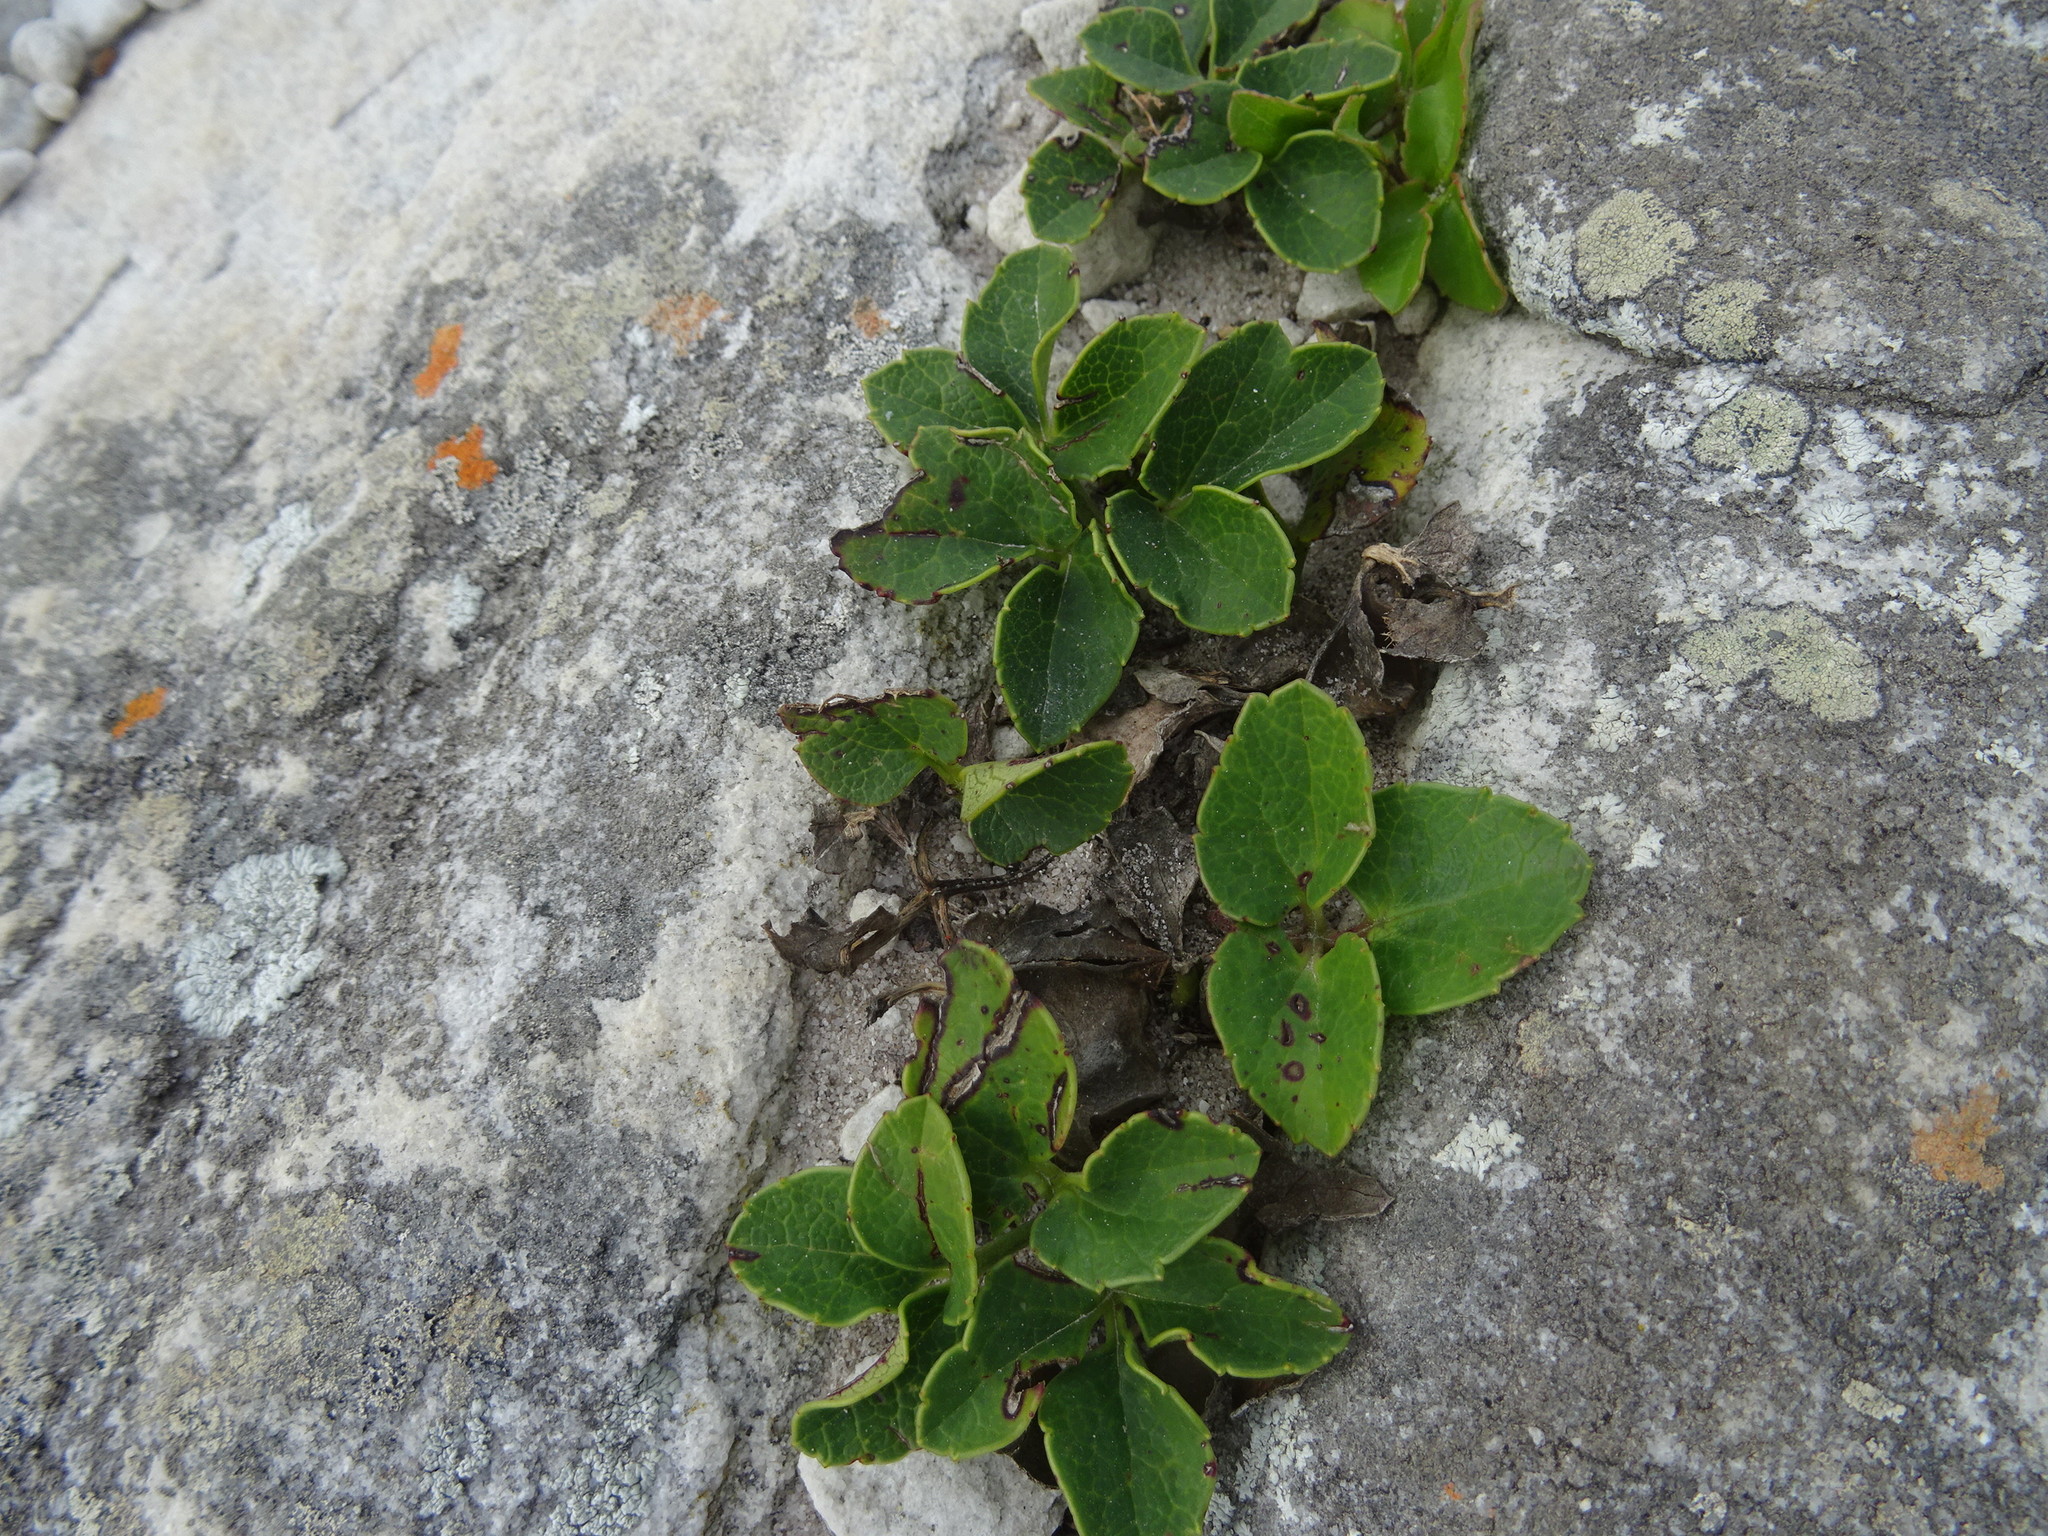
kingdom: Plantae
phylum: Tracheophyta
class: Magnoliopsida
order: Ranunculales
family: Ranunculaceae
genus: Knowltonia
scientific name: Knowltonia vesicatoria
